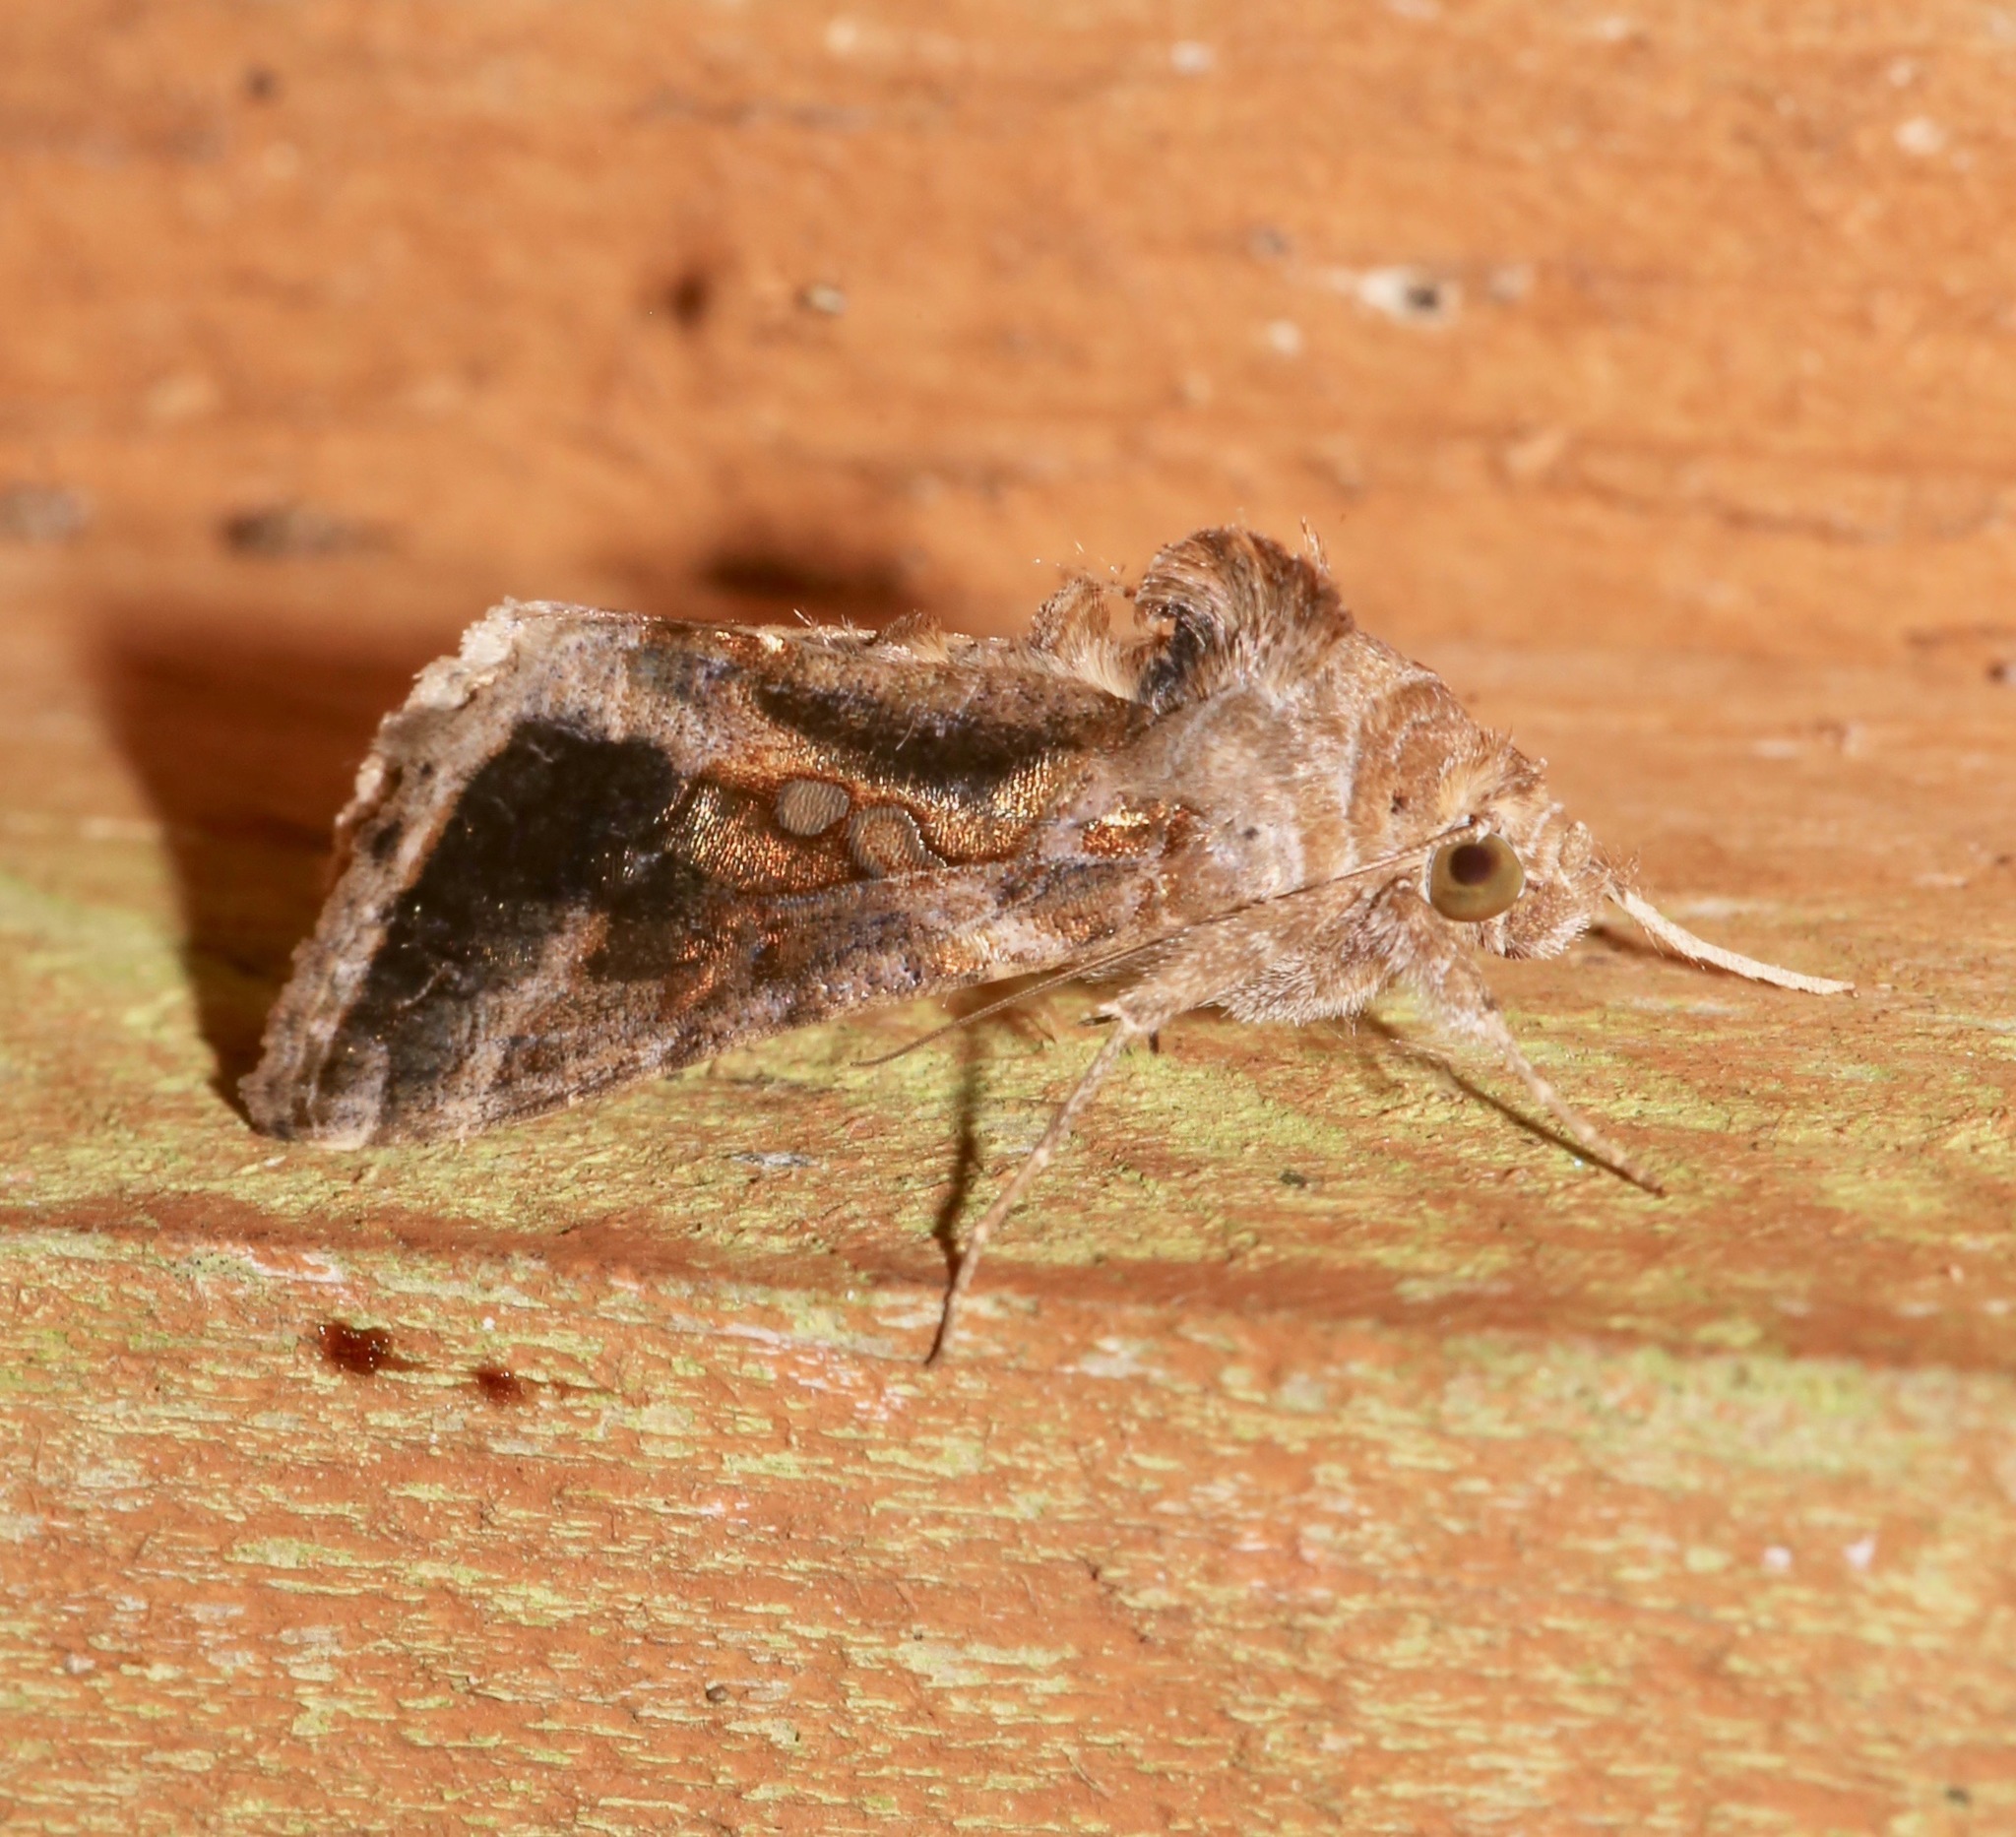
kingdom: Animalia
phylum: Arthropoda
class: Insecta
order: Lepidoptera
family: Noctuidae
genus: Chrysodeixis
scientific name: Chrysodeixis includens
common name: Cutworm moth
